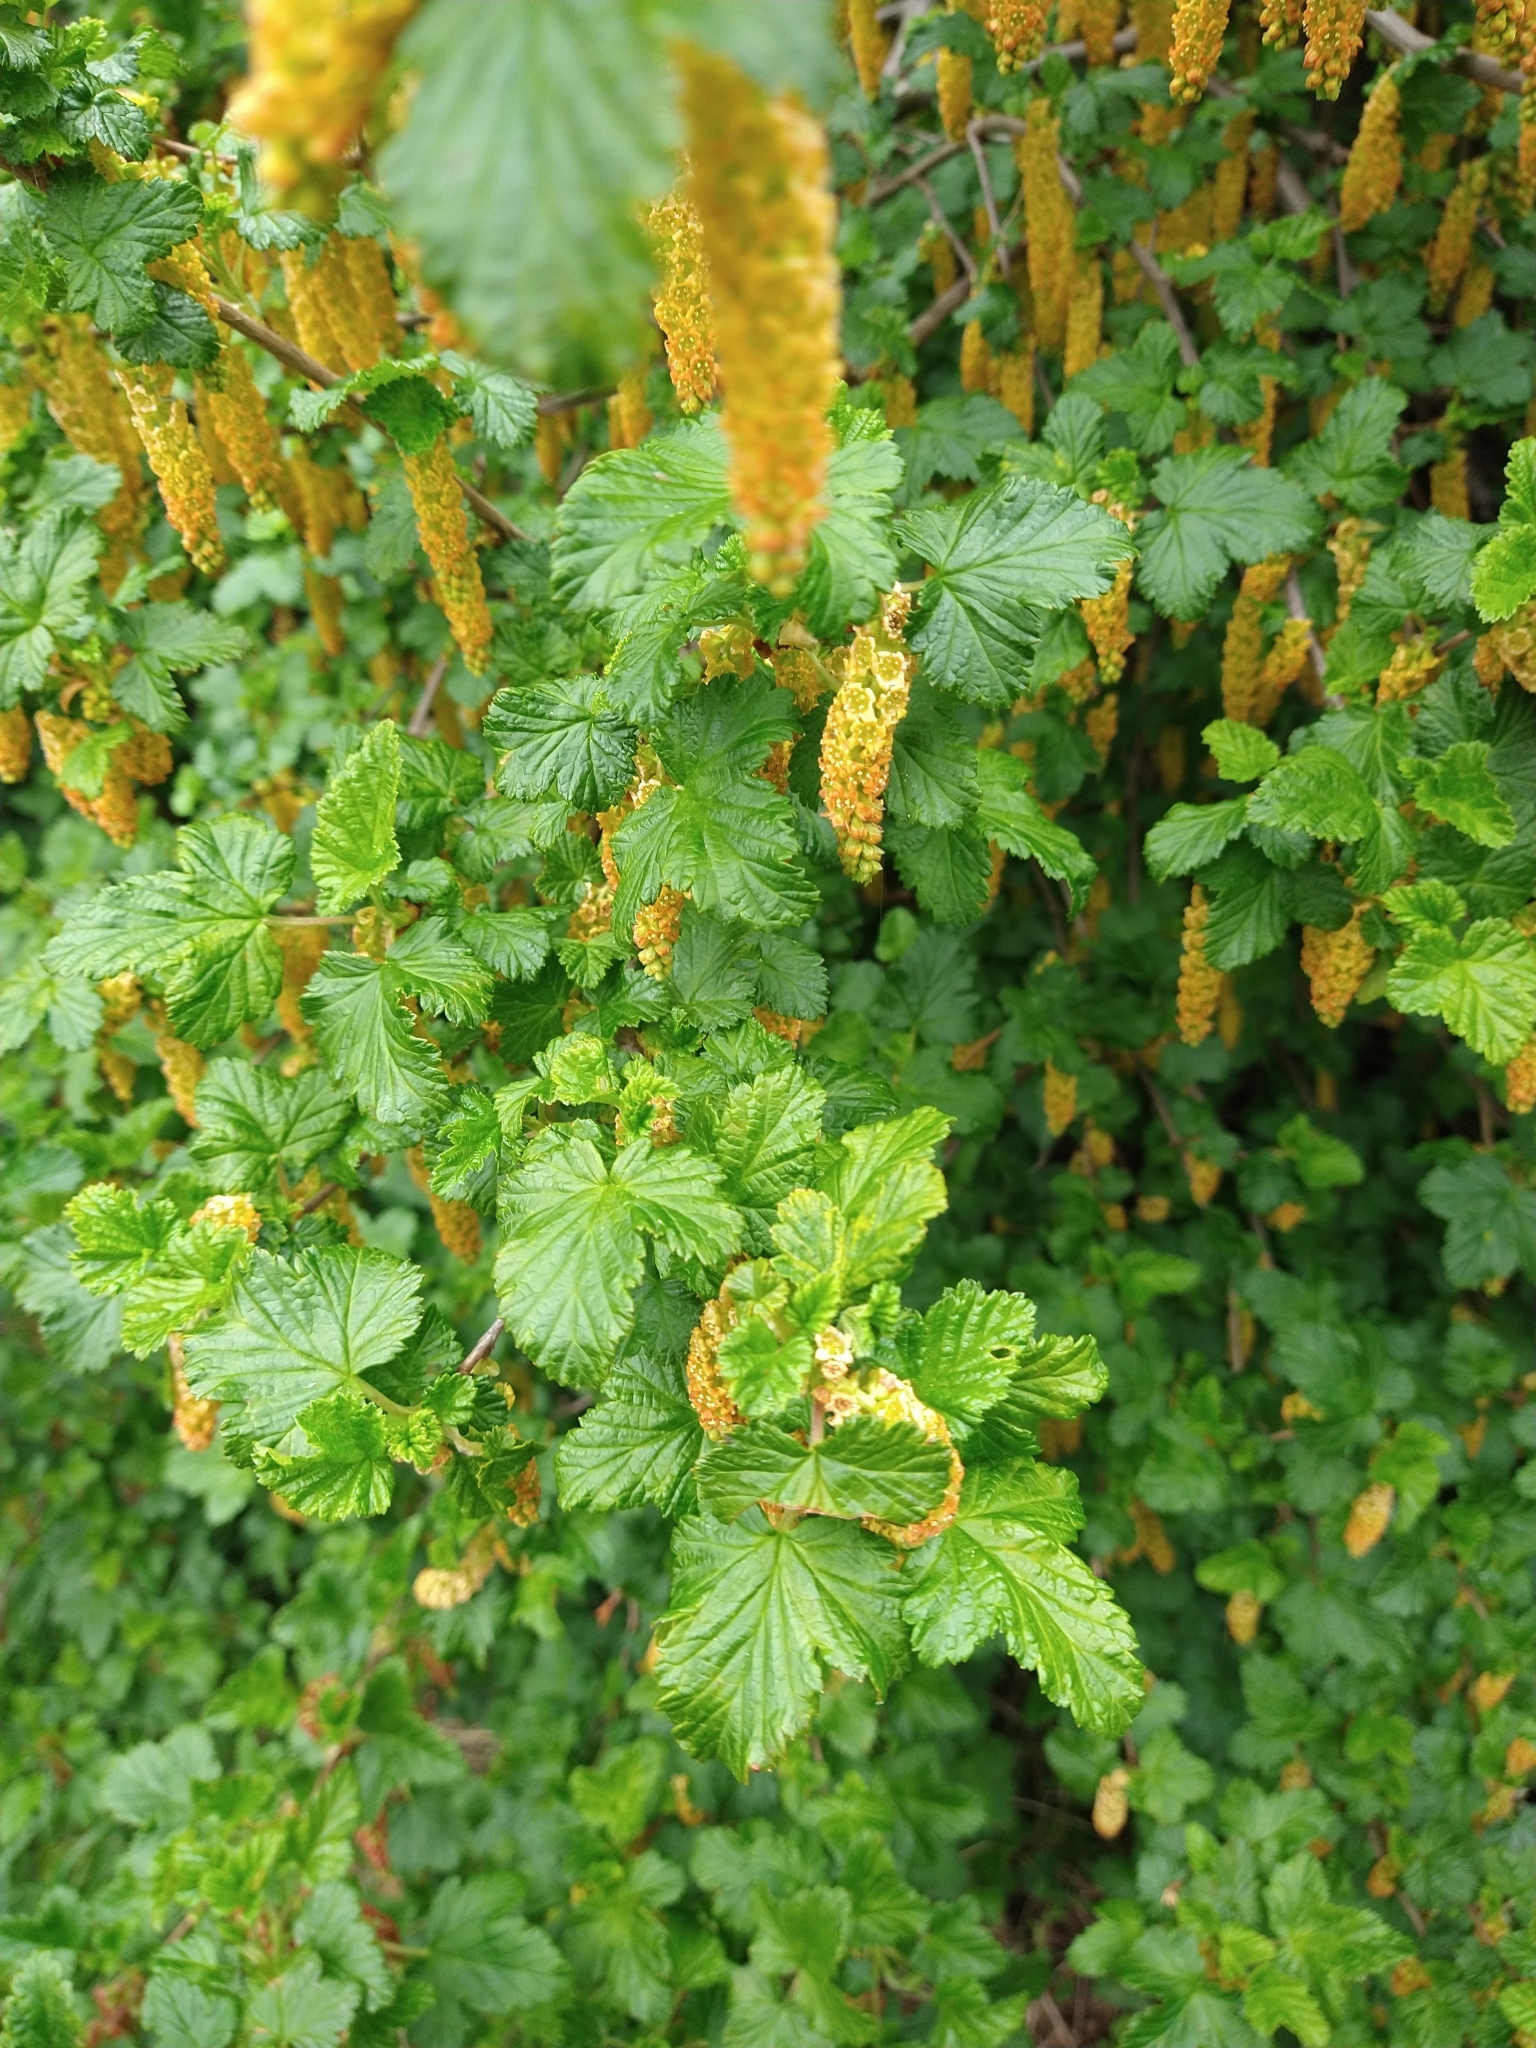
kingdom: Plantae
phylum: Tracheophyta
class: Magnoliopsida
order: Saxifragales
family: Grossulariaceae
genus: Ribes
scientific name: Ribes magellanicum
